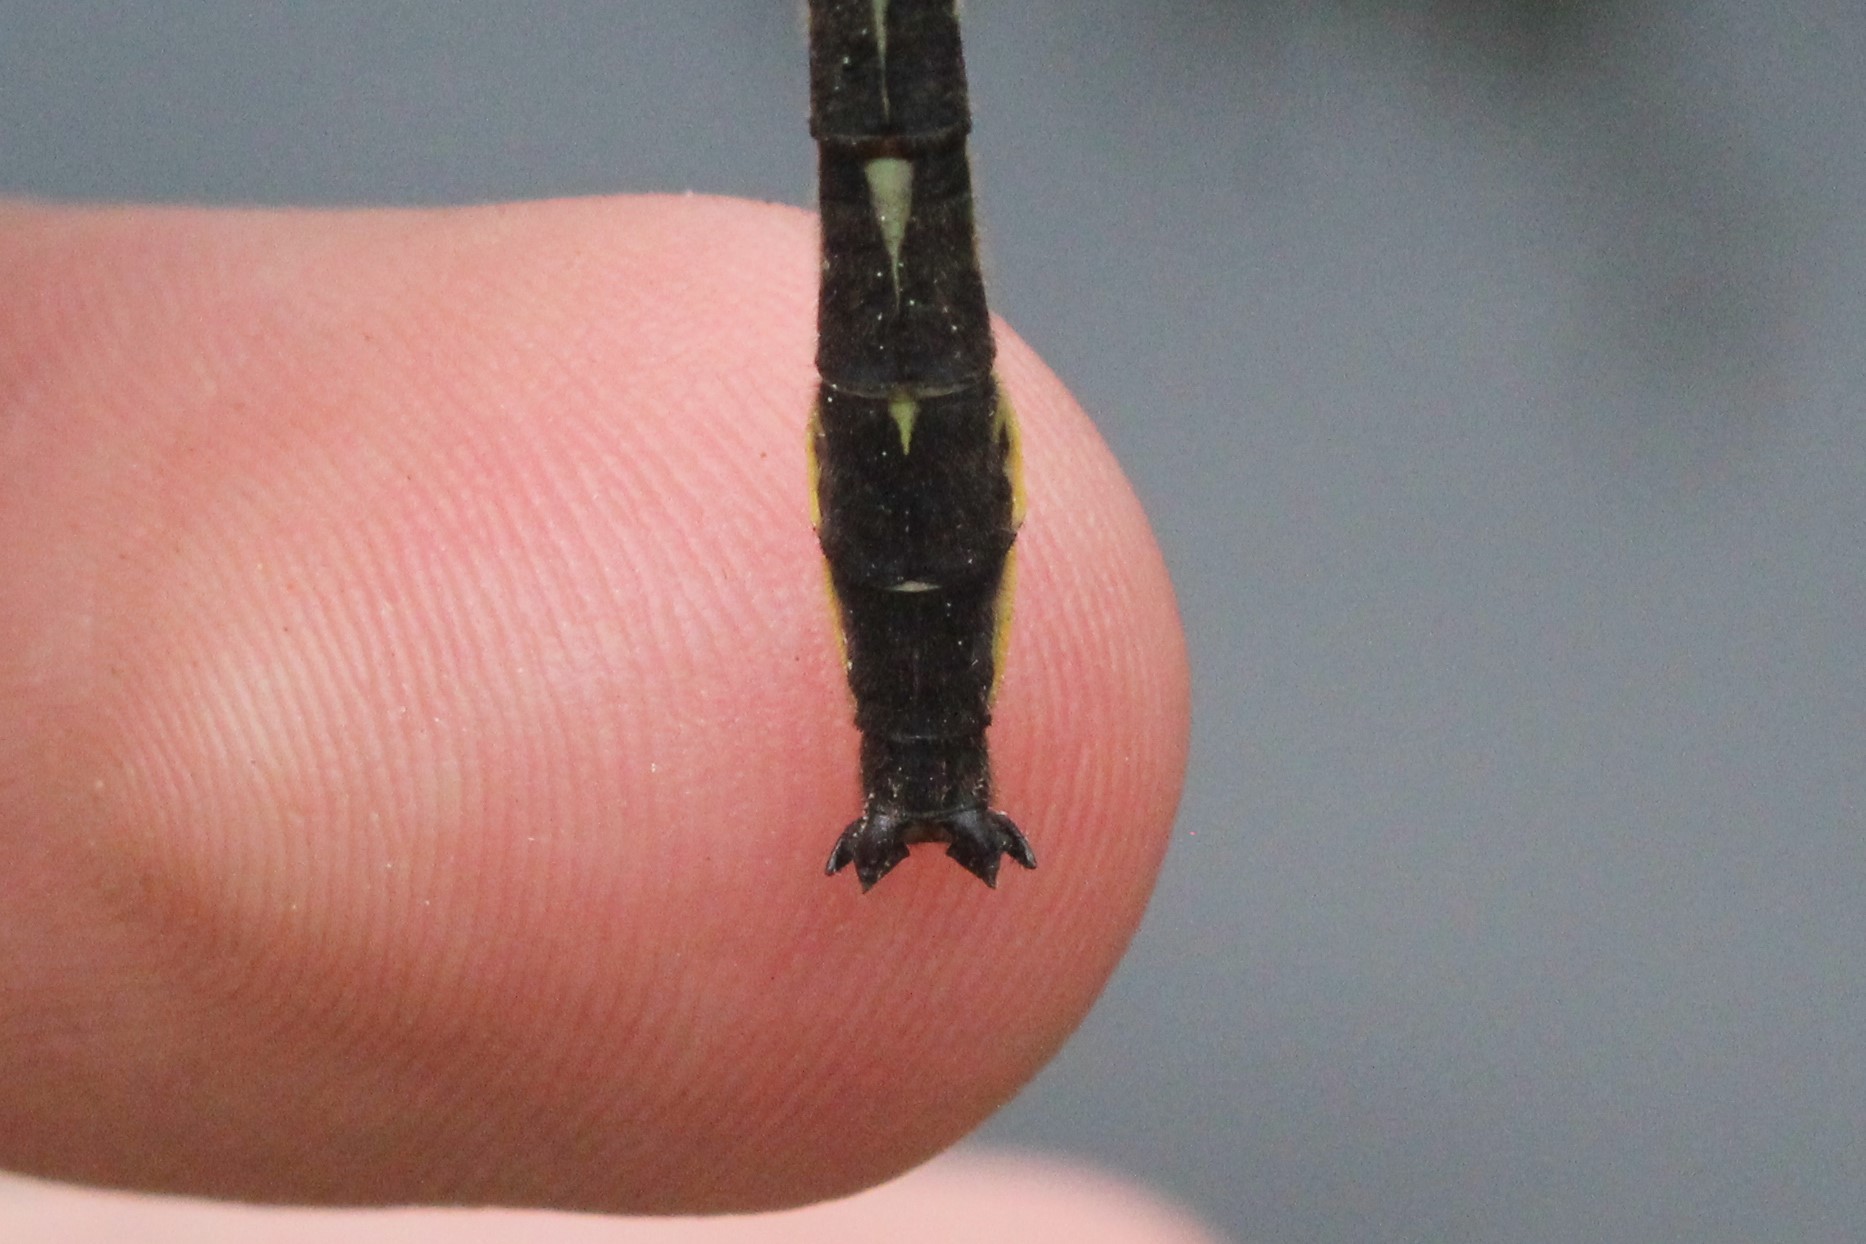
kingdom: Animalia
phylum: Arthropoda
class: Insecta
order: Odonata
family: Gomphidae
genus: Phanogomphus
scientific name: Phanogomphus borealis
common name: Beaverpond clubtail
